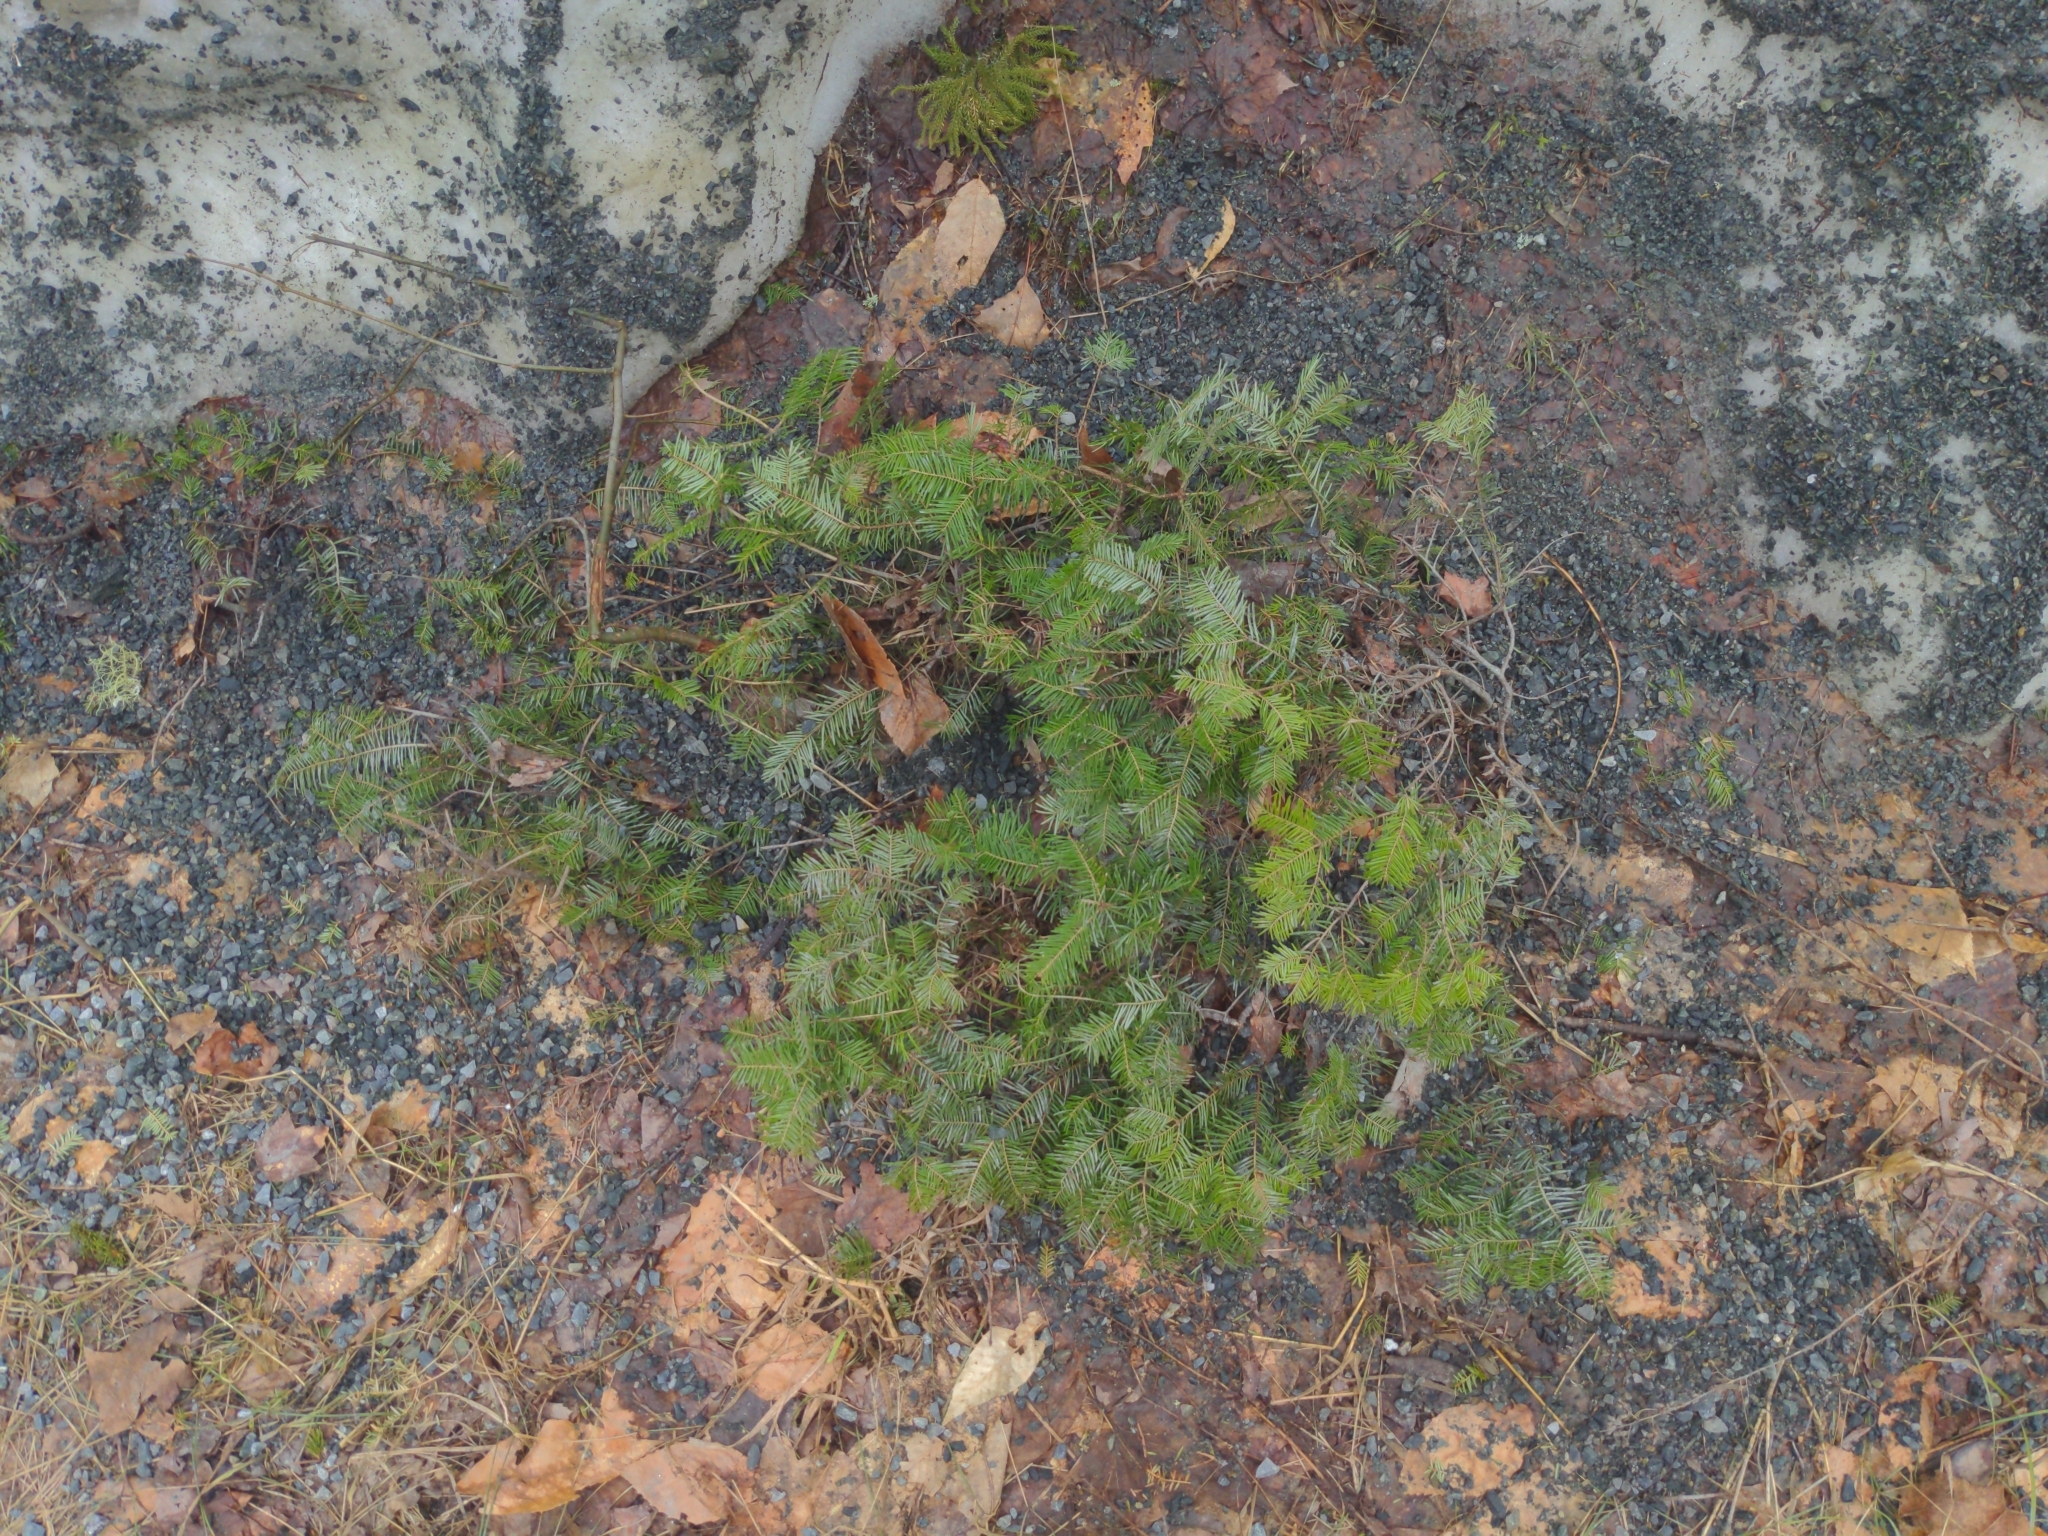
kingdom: Plantae
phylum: Tracheophyta
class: Pinopsida
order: Pinales
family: Pinaceae
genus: Abies
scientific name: Abies balsamea
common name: Balsam fir
